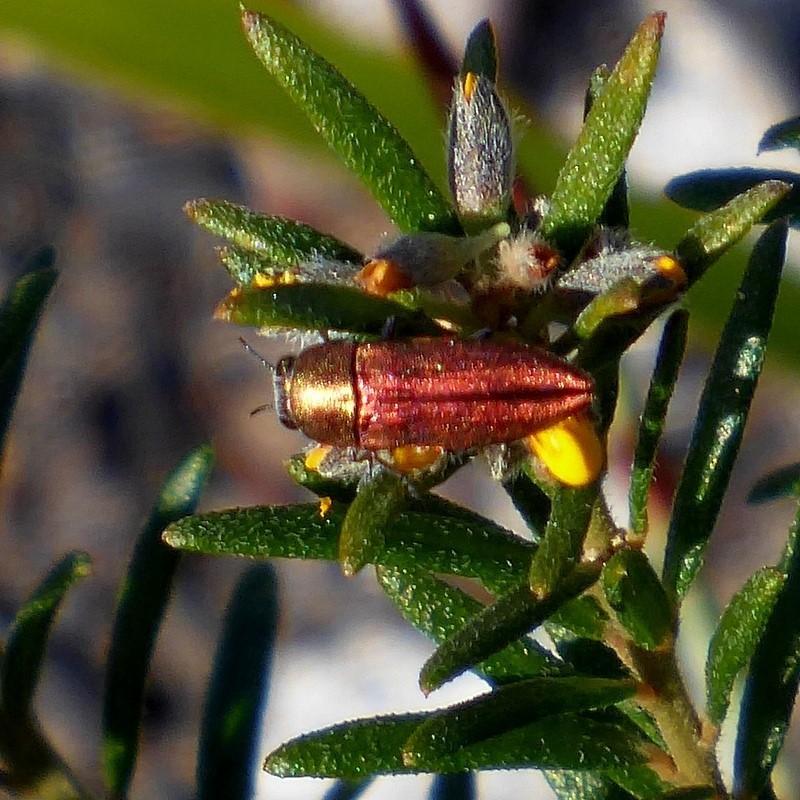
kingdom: Animalia
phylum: Arthropoda
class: Insecta
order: Coleoptera
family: Buprestidae
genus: Melobasis
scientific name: Melobasis propinqua
